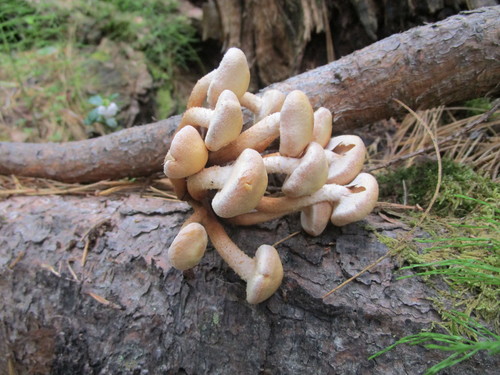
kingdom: Fungi
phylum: Basidiomycota
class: Agaricomycetes
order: Agaricales
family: Strophariaceae
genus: Kuehneromyces
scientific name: Kuehneromyces mutabilis
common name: Sheathed woodtuft
